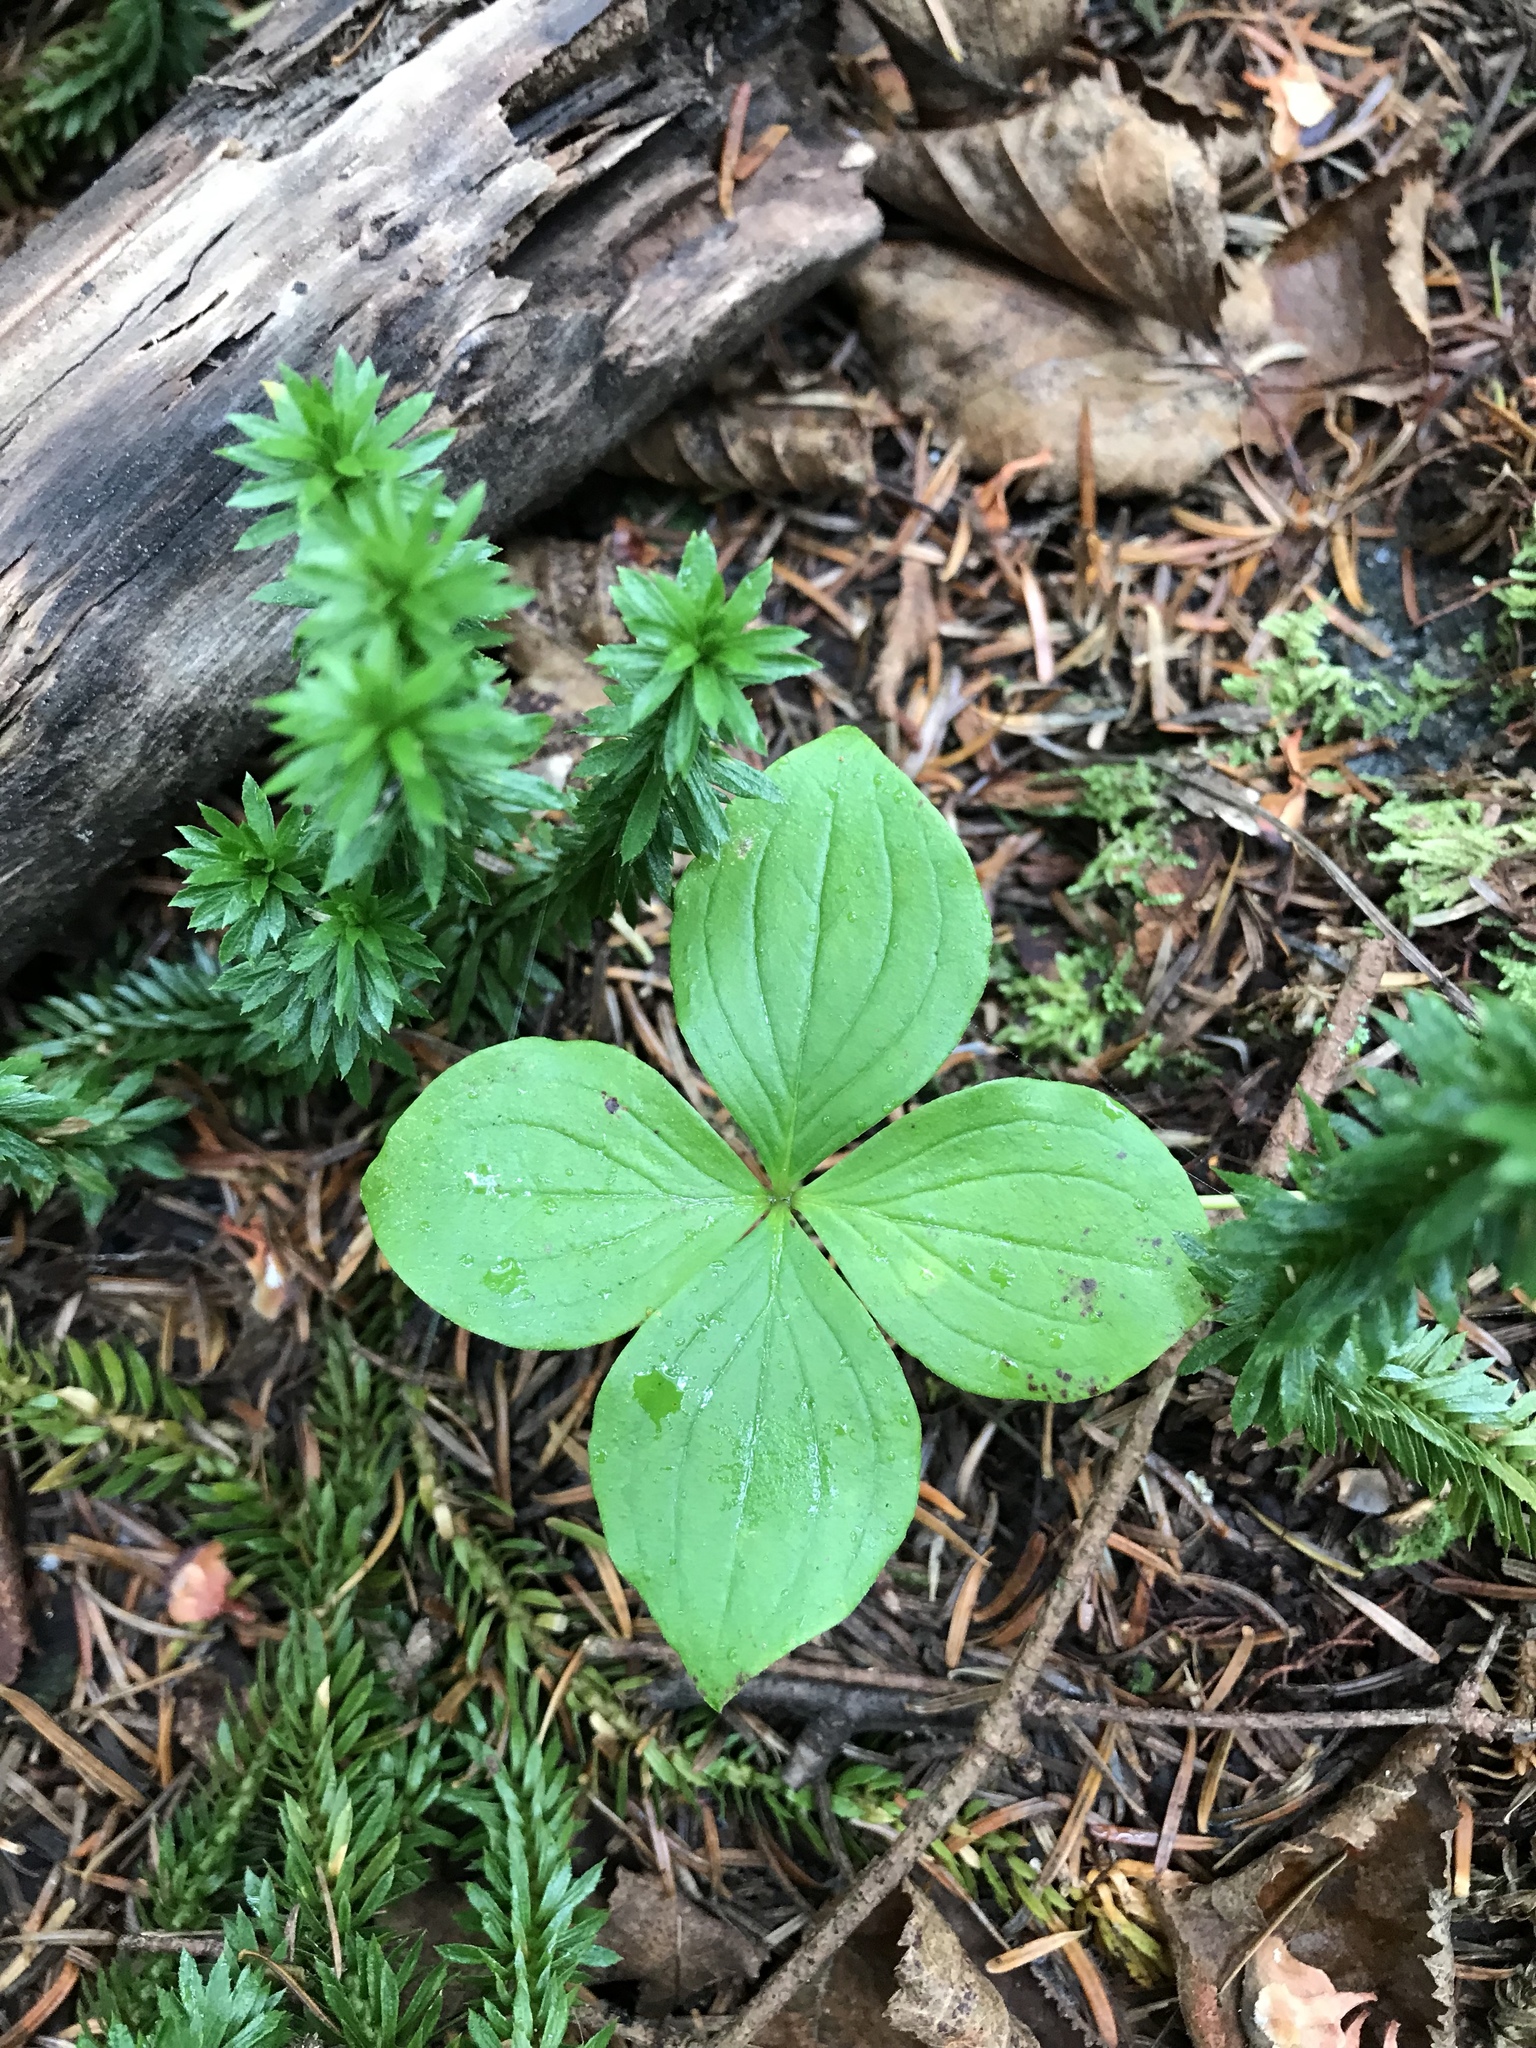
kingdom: Plantae
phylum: Tracheophyta
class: Magnoliopsida
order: Cornales
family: Cornaceae
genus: Cornus
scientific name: Cornus canadensis
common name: Creeping dogwood
